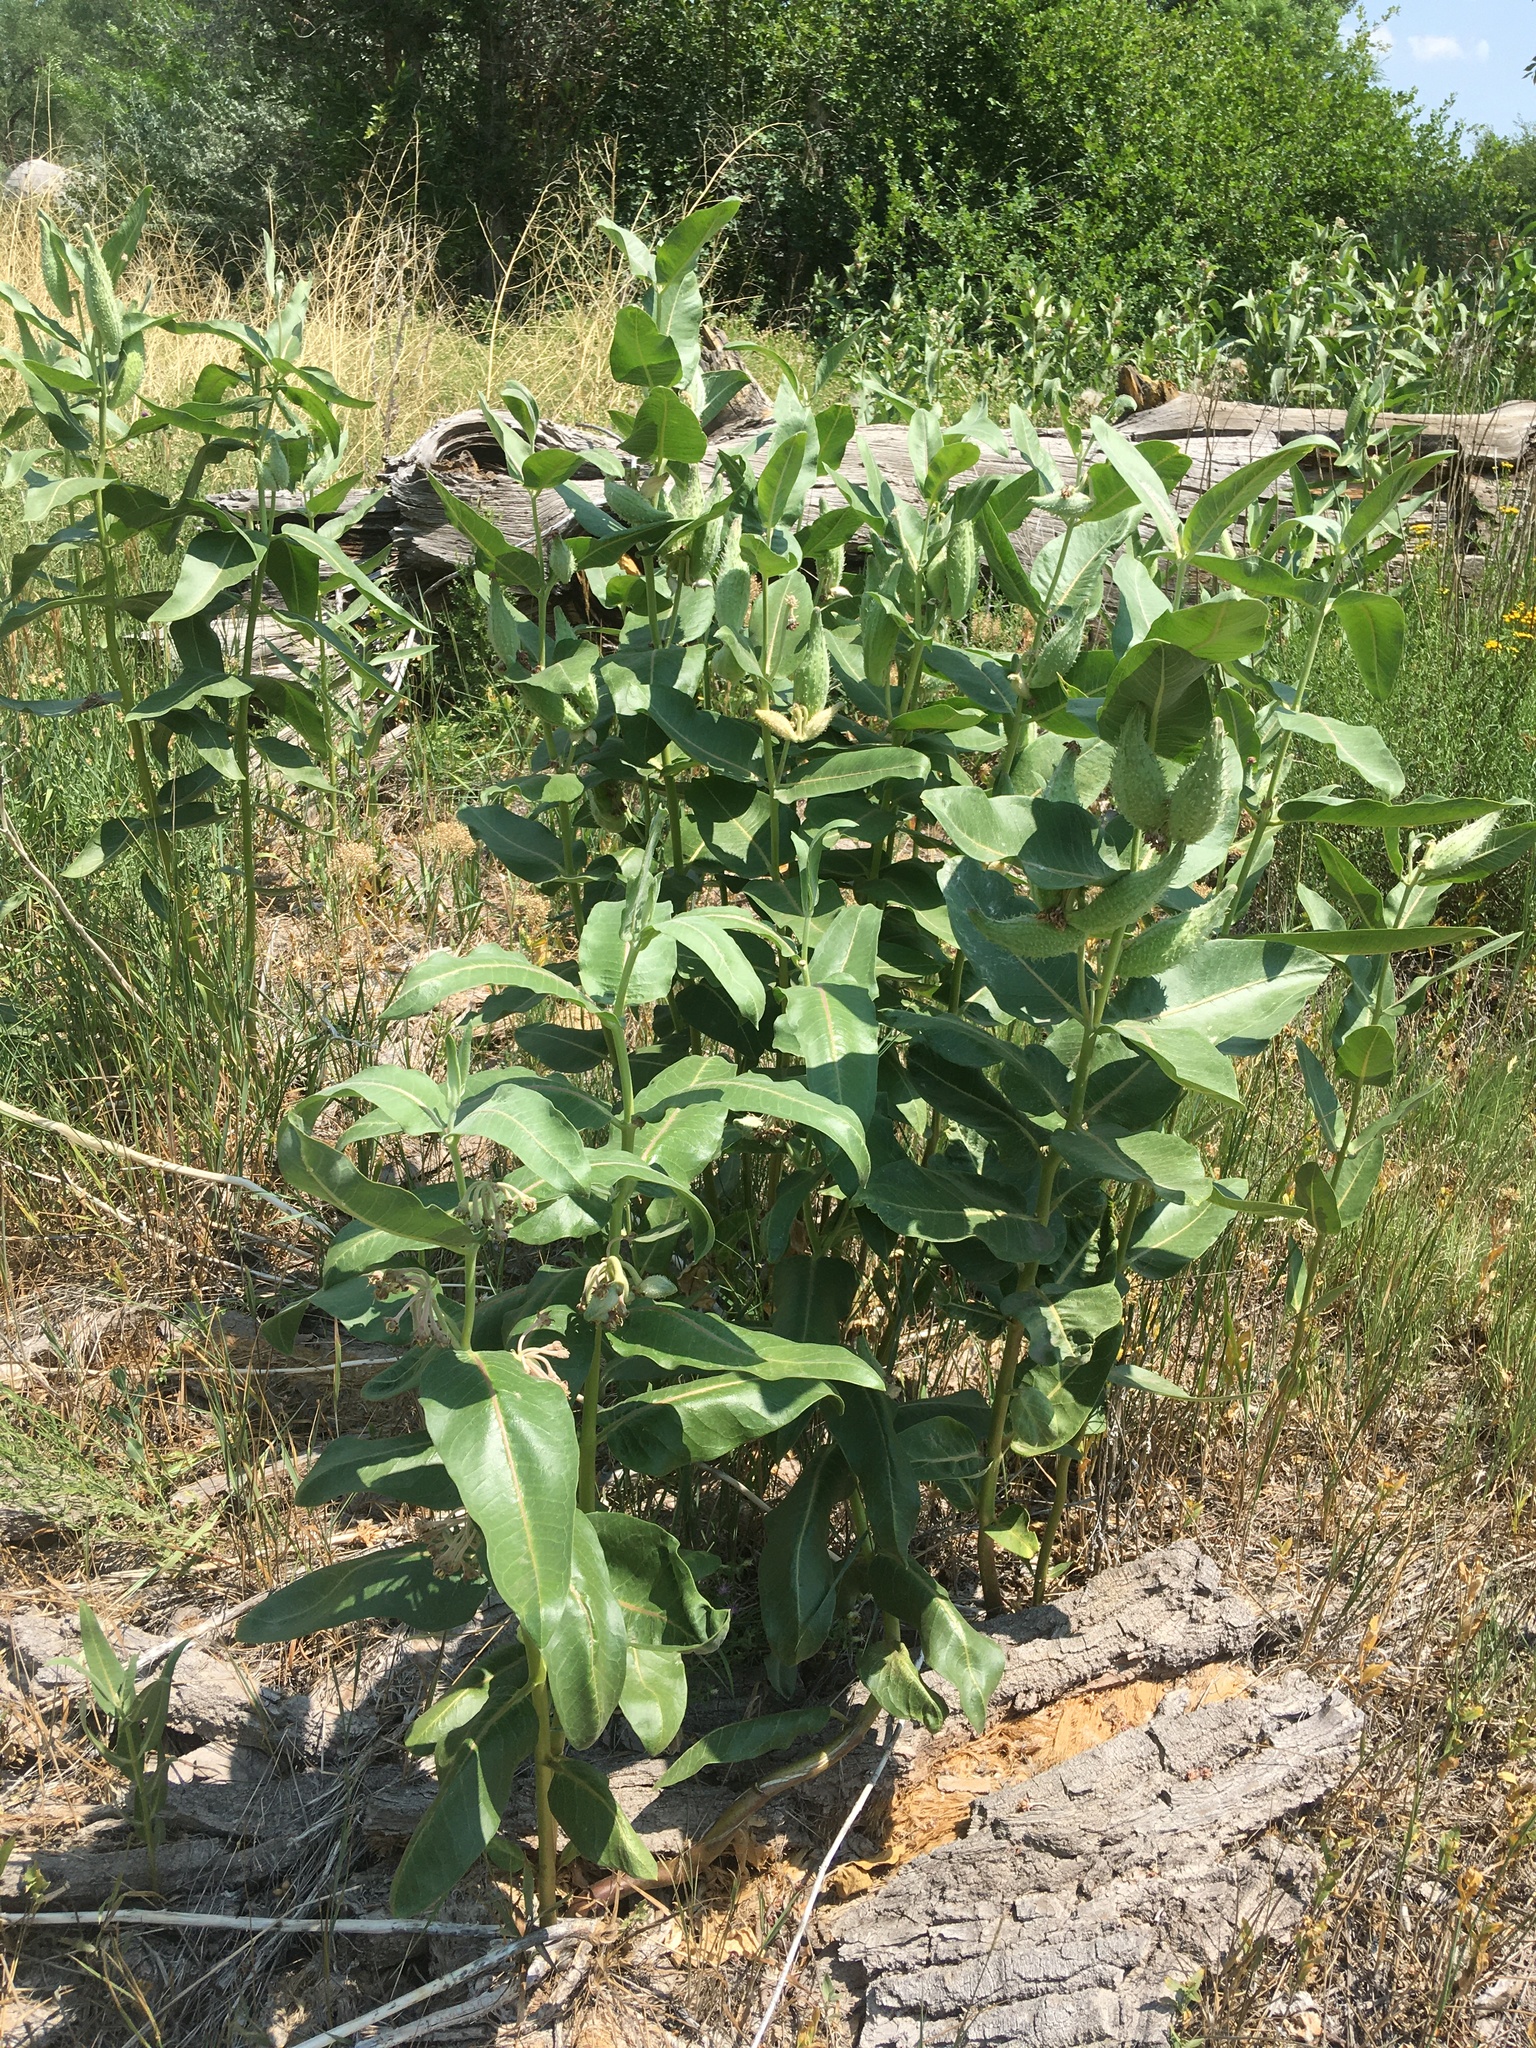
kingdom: Plantae
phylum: Tracheophyta
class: Magnoliopsida
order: Gentianales
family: Apocynaceae
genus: Asclepias
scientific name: Asclepias speciosa
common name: Showy milkweed
